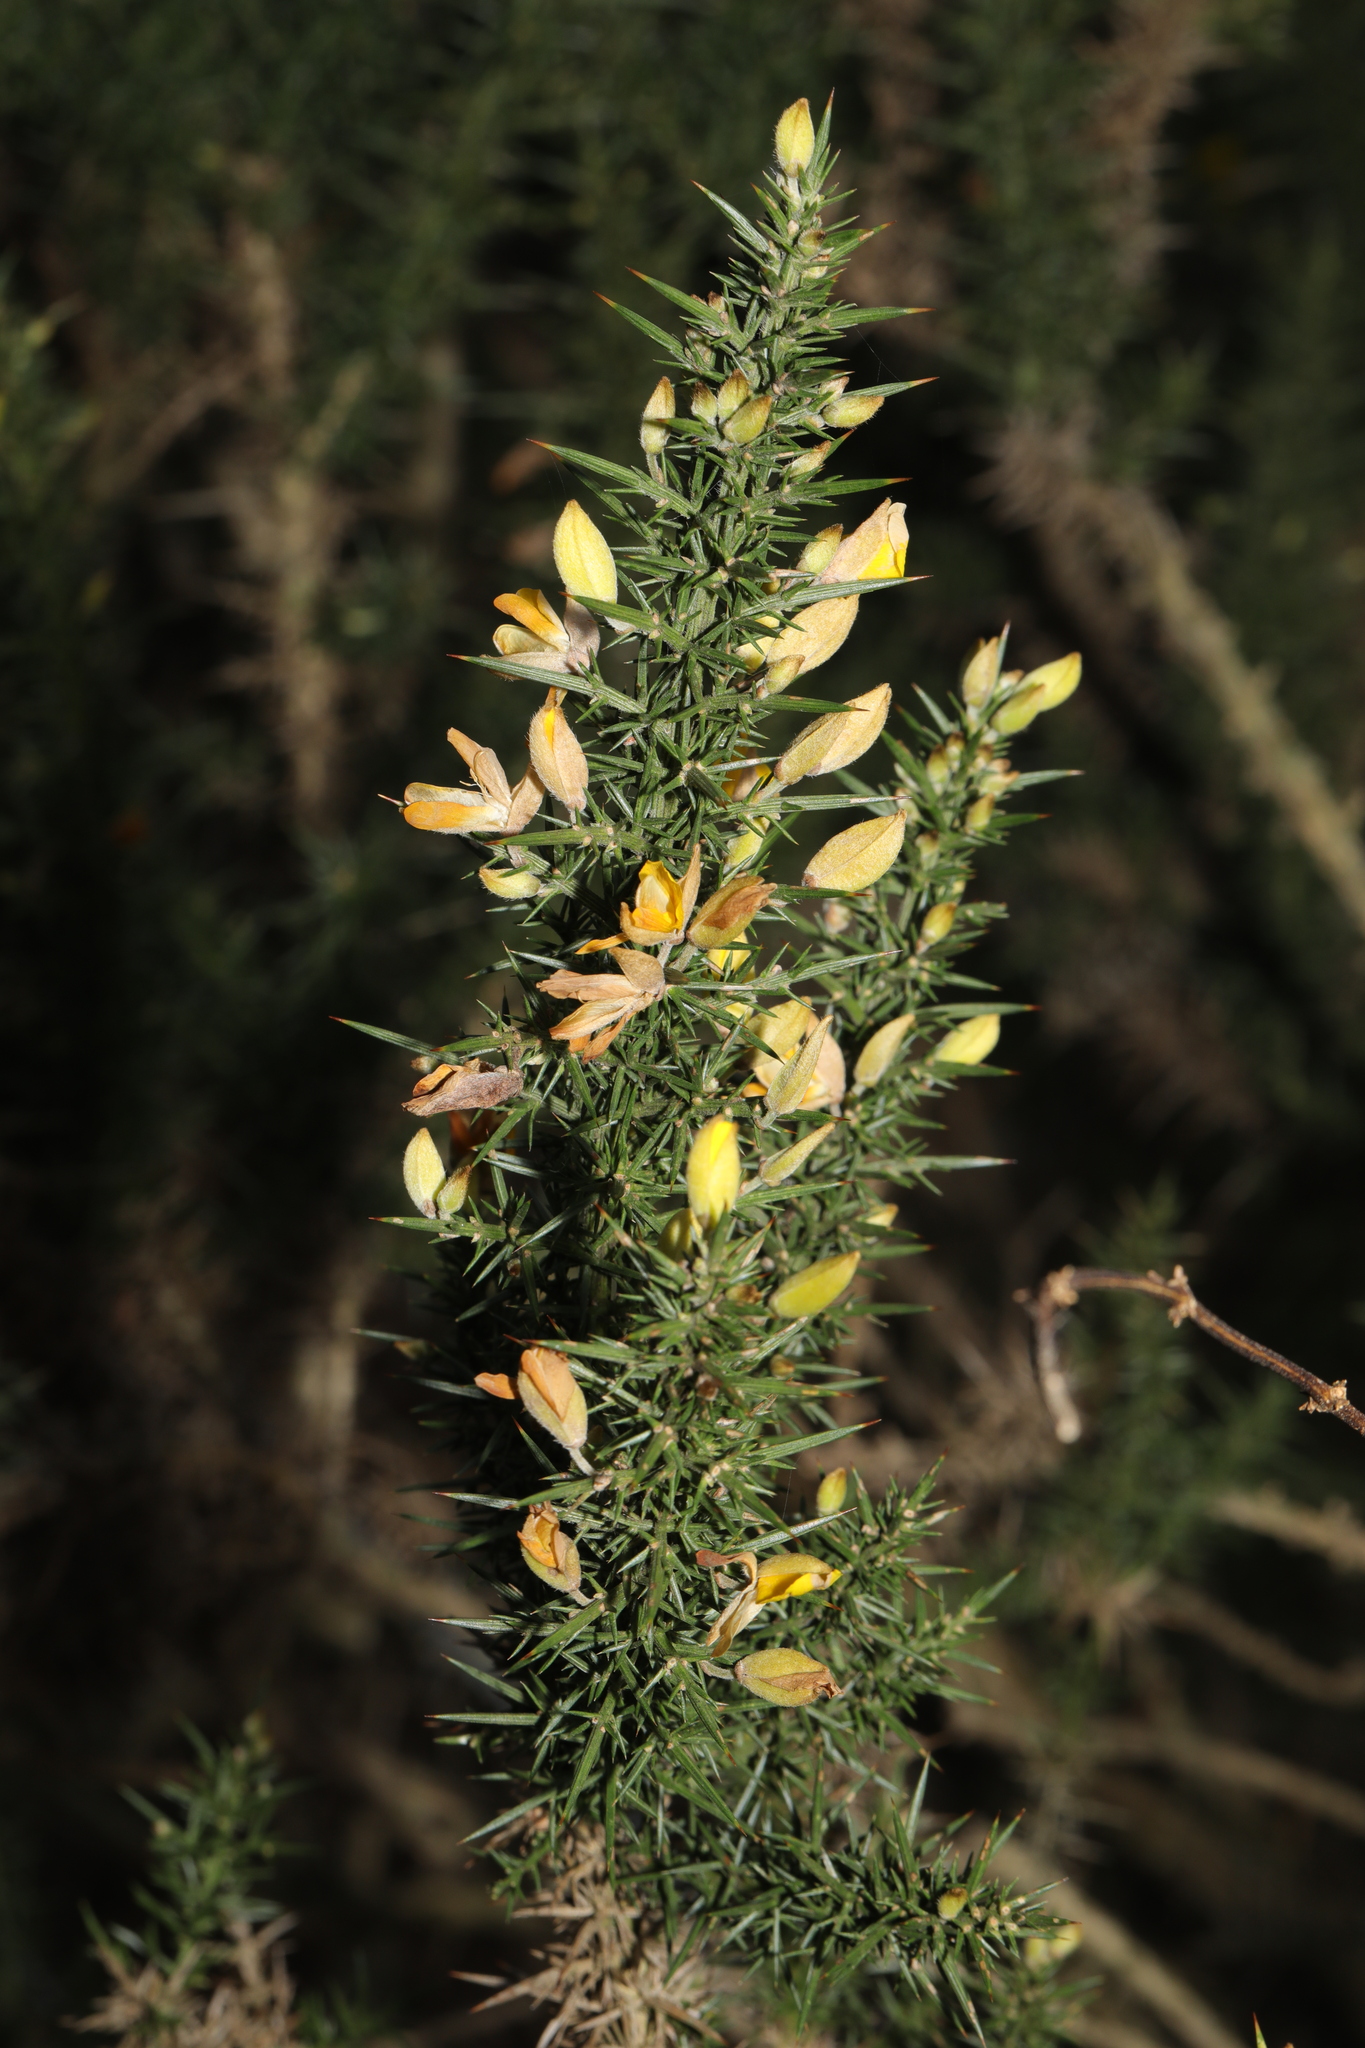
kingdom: Plantae
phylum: Tracheophyta
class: Magnoliopsida
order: Fabales
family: Fabaceae
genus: Ulex
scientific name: Ulex europaeus
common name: Common gorse
